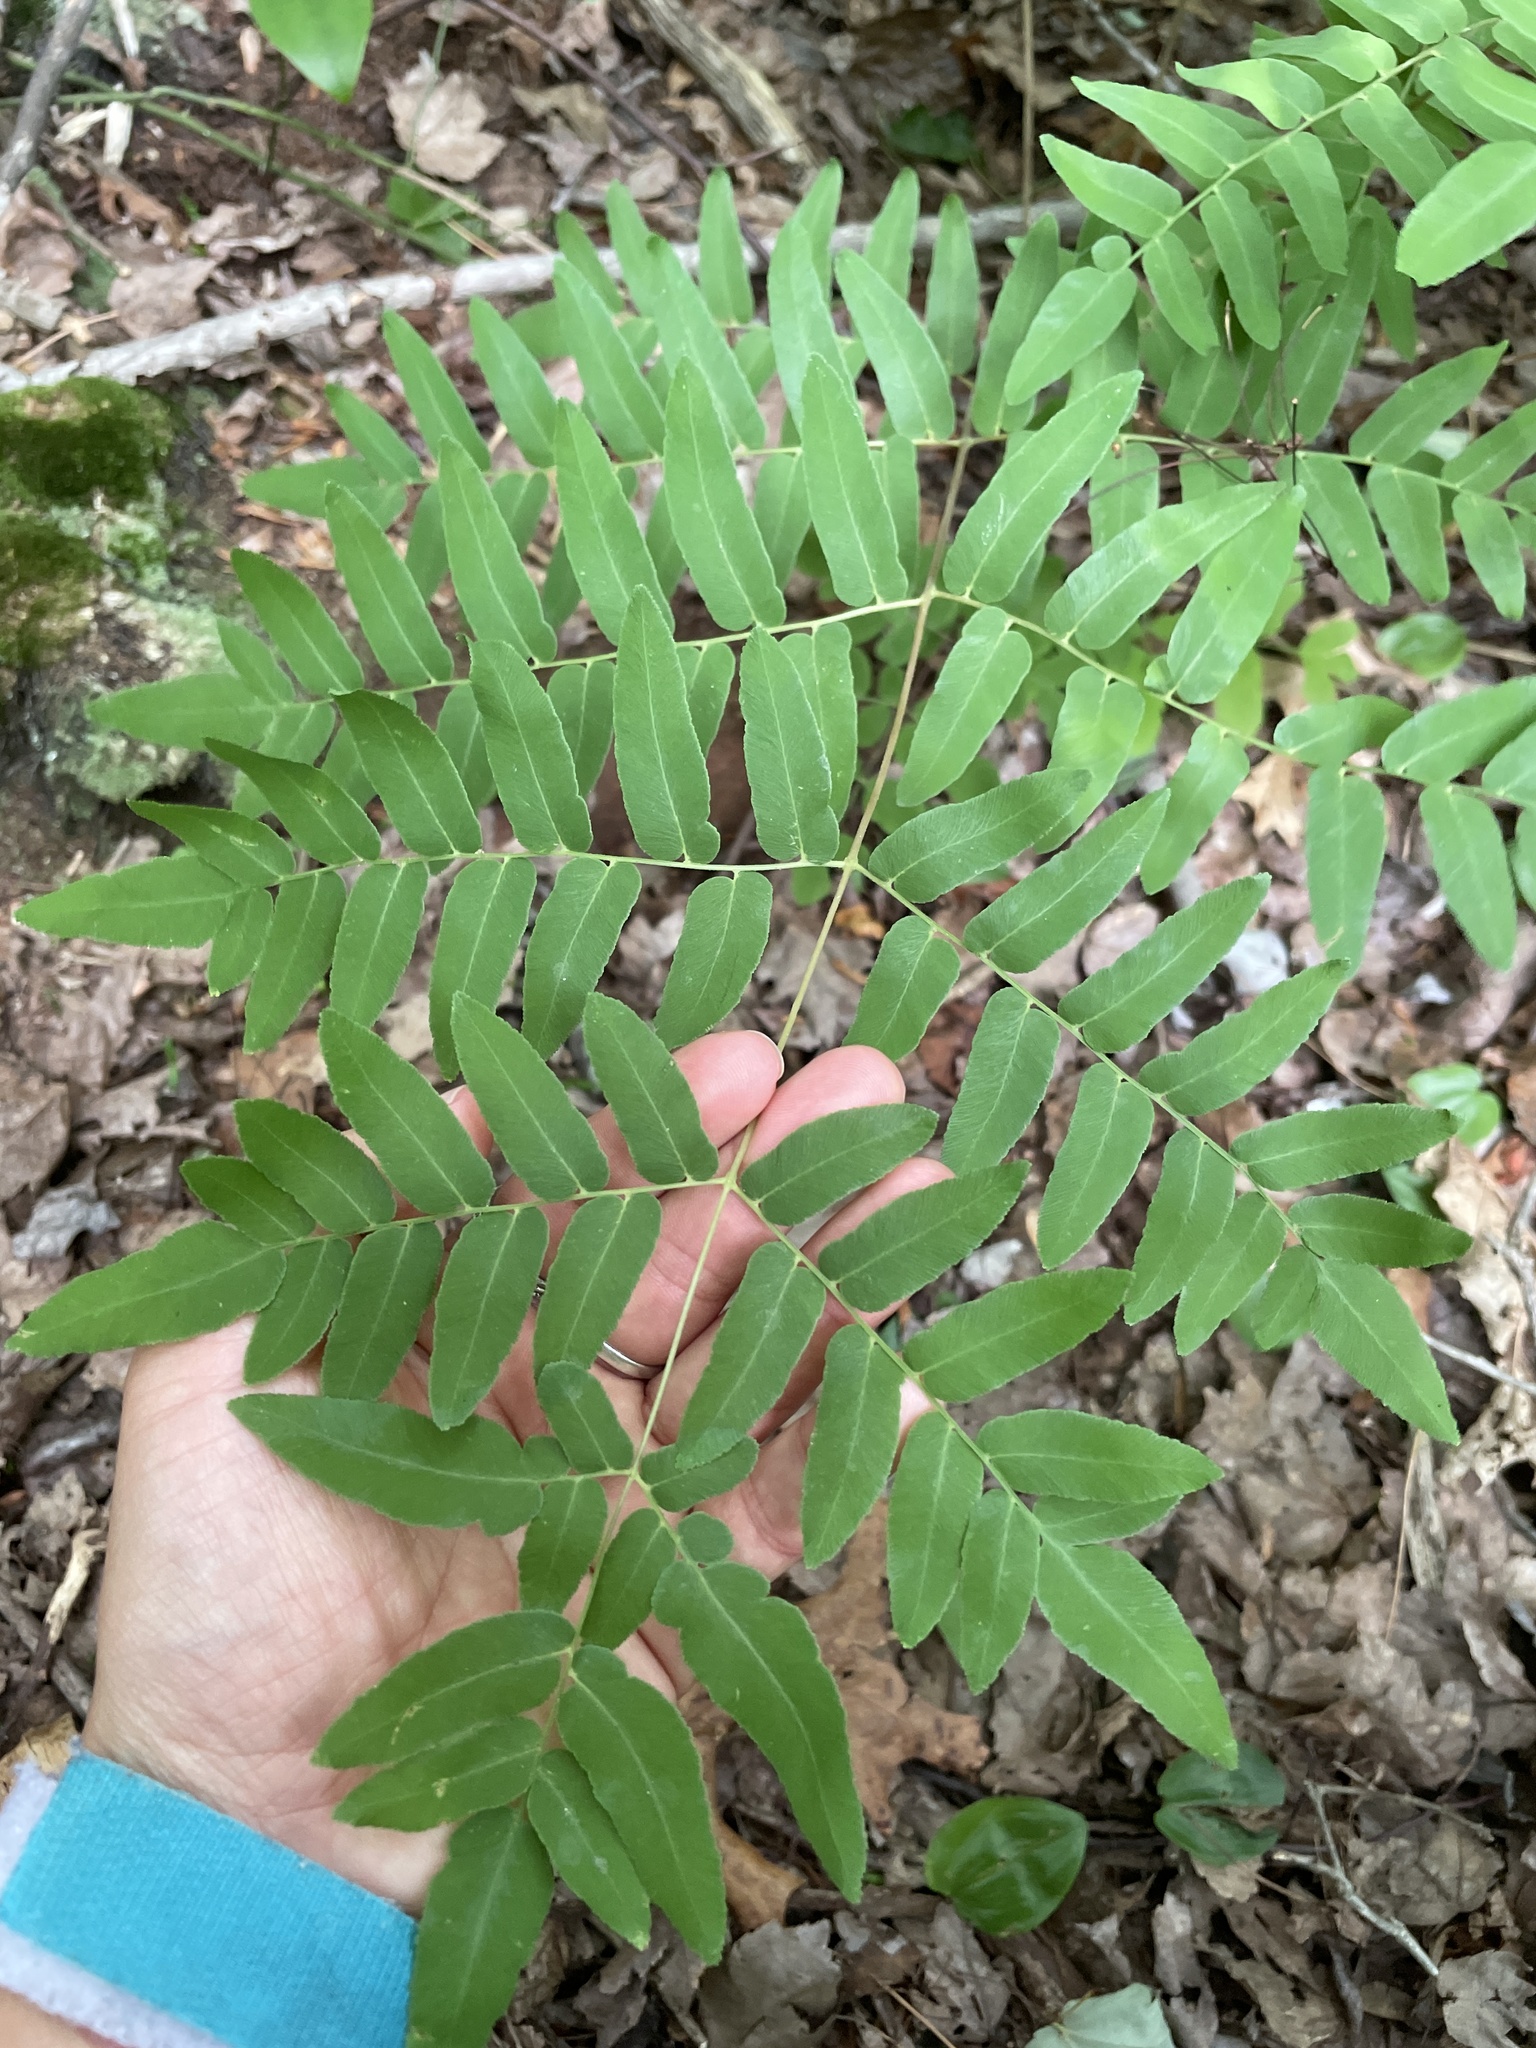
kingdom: Plantae
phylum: Tracheophyta
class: Polypodiopsida
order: Osmundales
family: Osmundaceae
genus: Osmunda
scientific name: Osmunda spectabilis
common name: American royal fern
